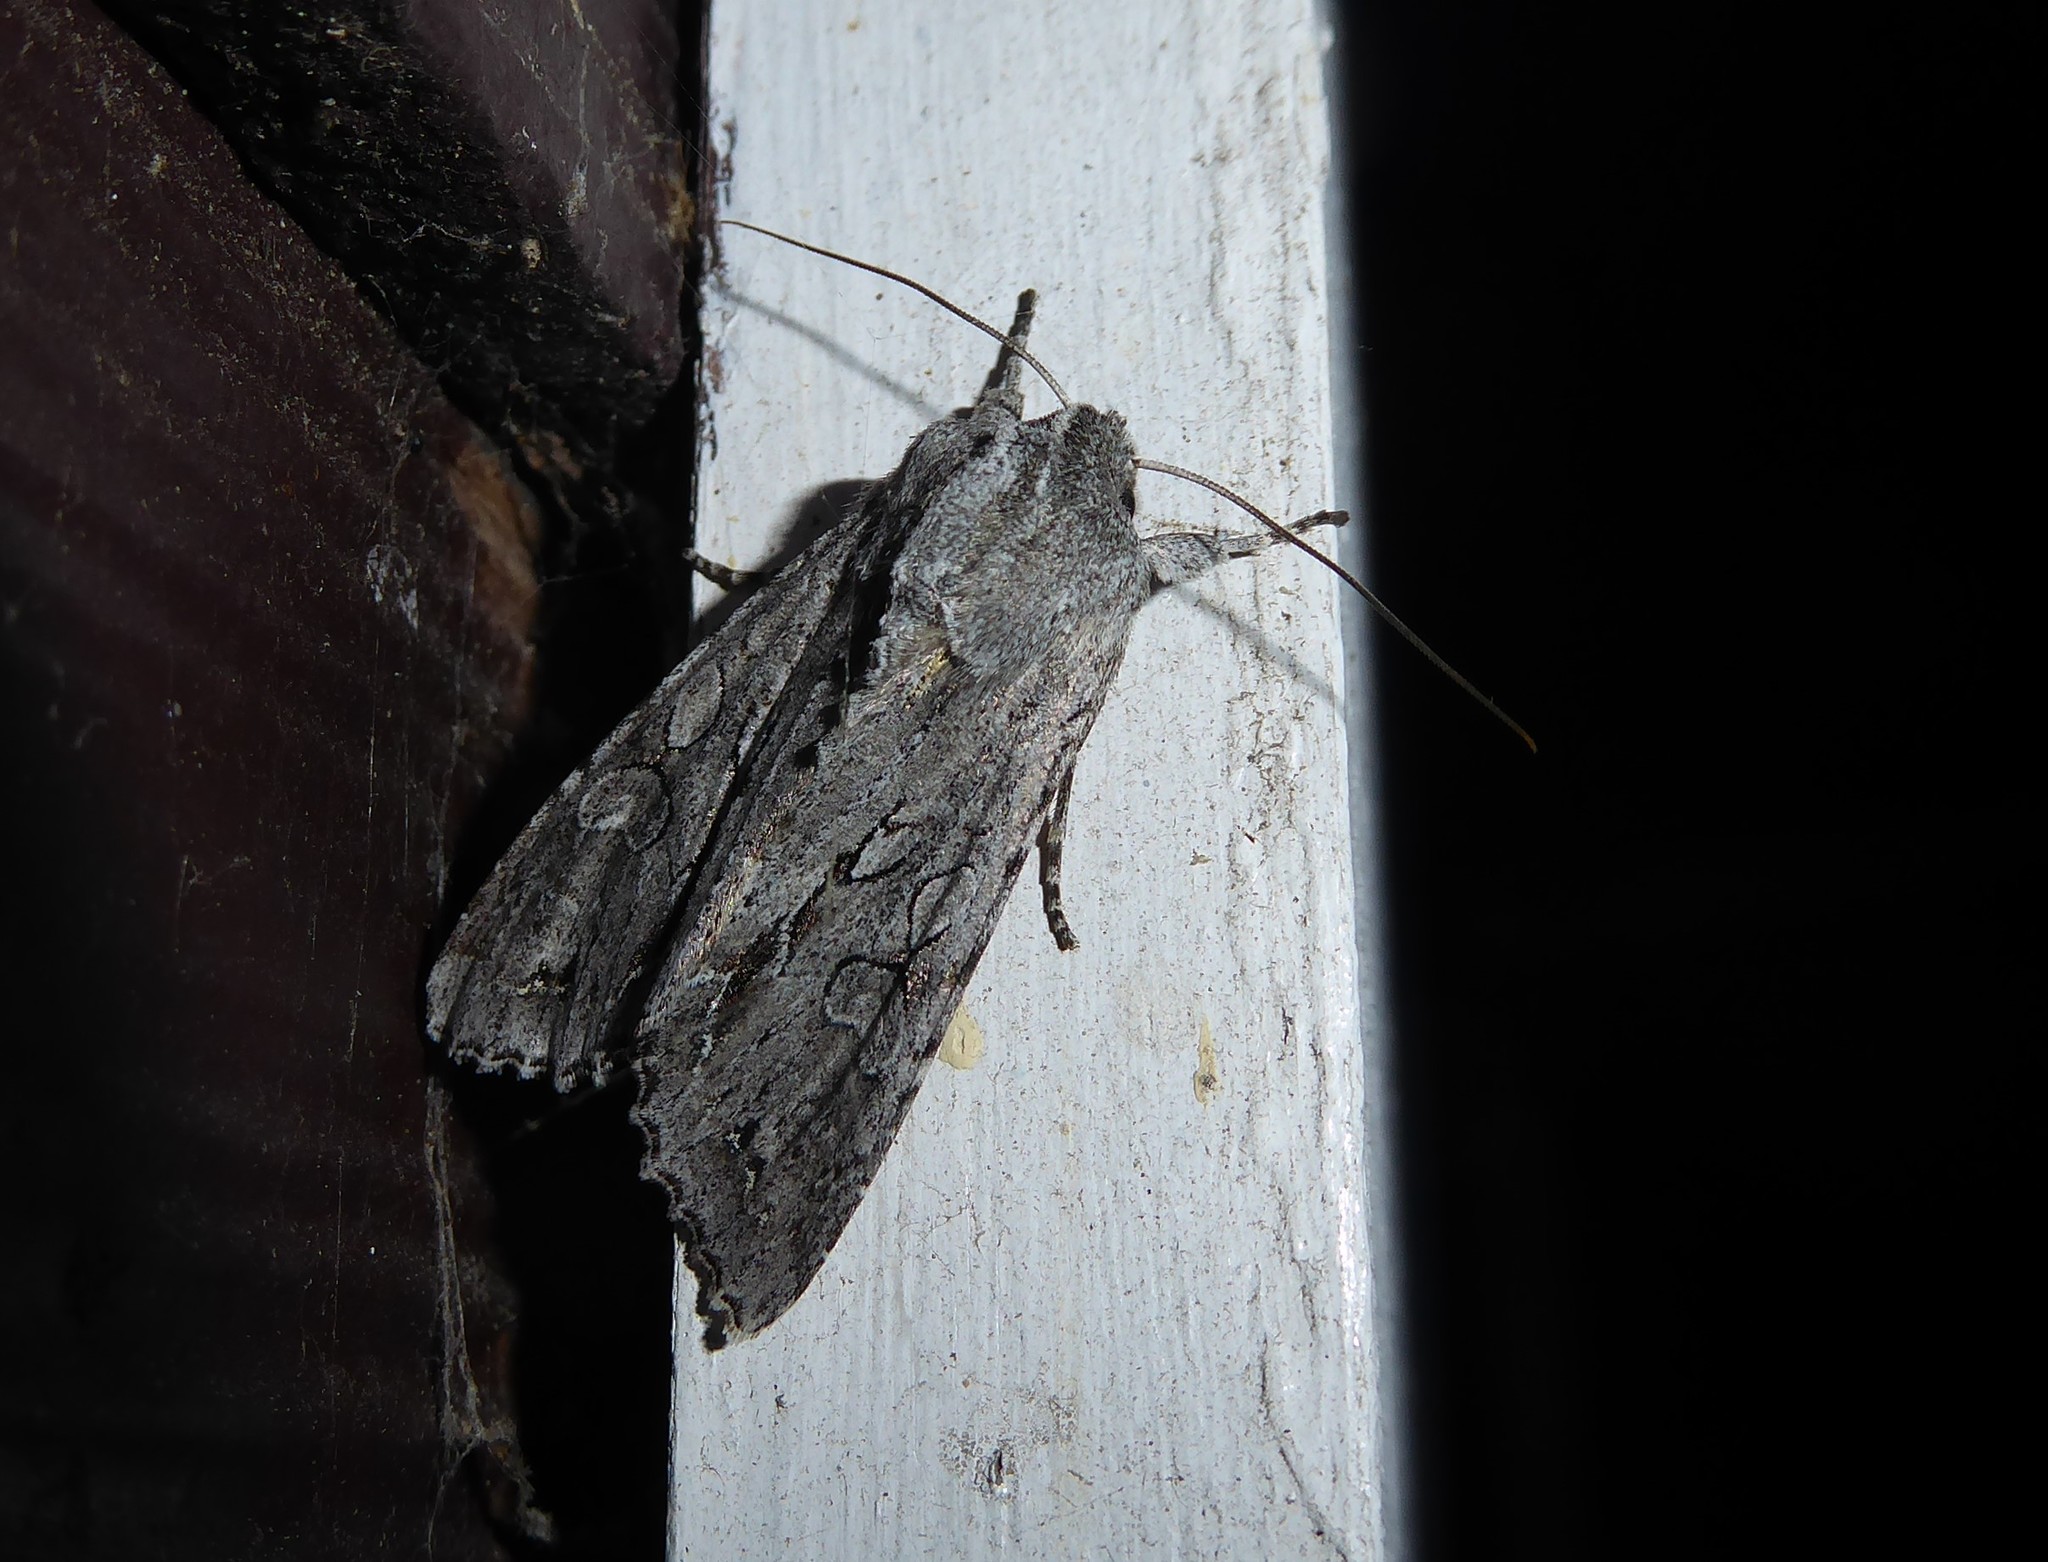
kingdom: Animalia
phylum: Arthropoda
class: Insecta
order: Lepidoptera
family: Noctuidae
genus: Ichneutica
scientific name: Ichneutica
